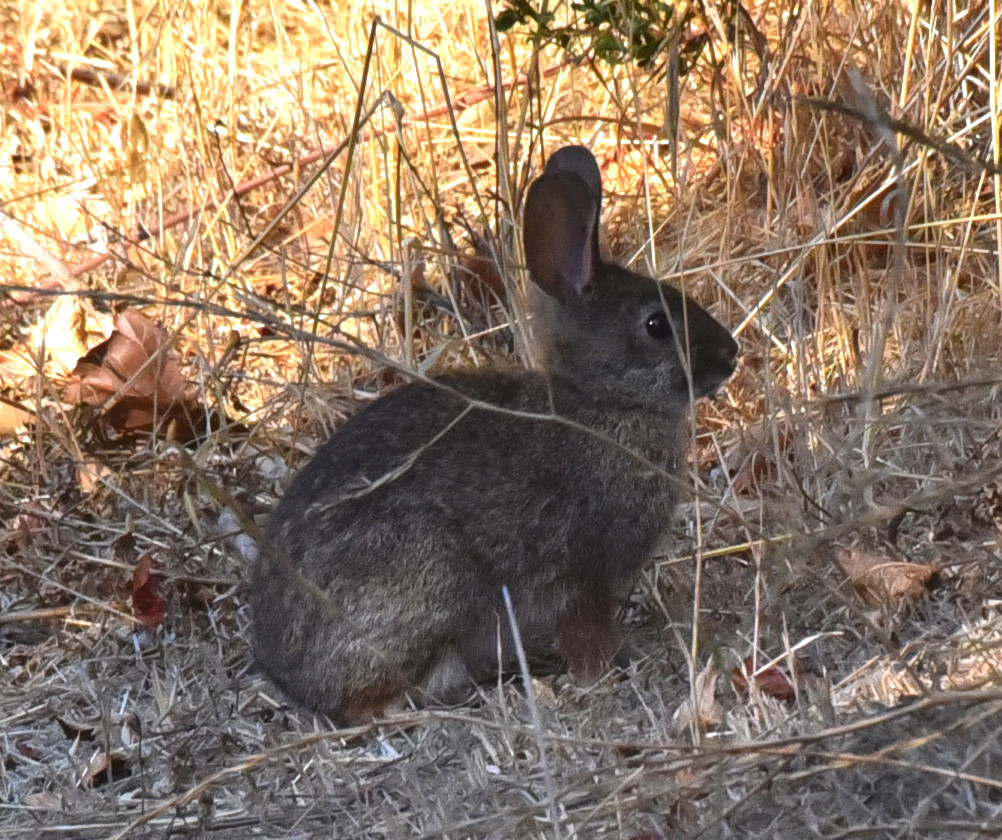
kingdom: Animalia
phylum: Chordata
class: Mammalia
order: Lagomorpha
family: Leporidae
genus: Sylvilagus
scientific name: Sylvilagus bachmani
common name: Brush rabbit
